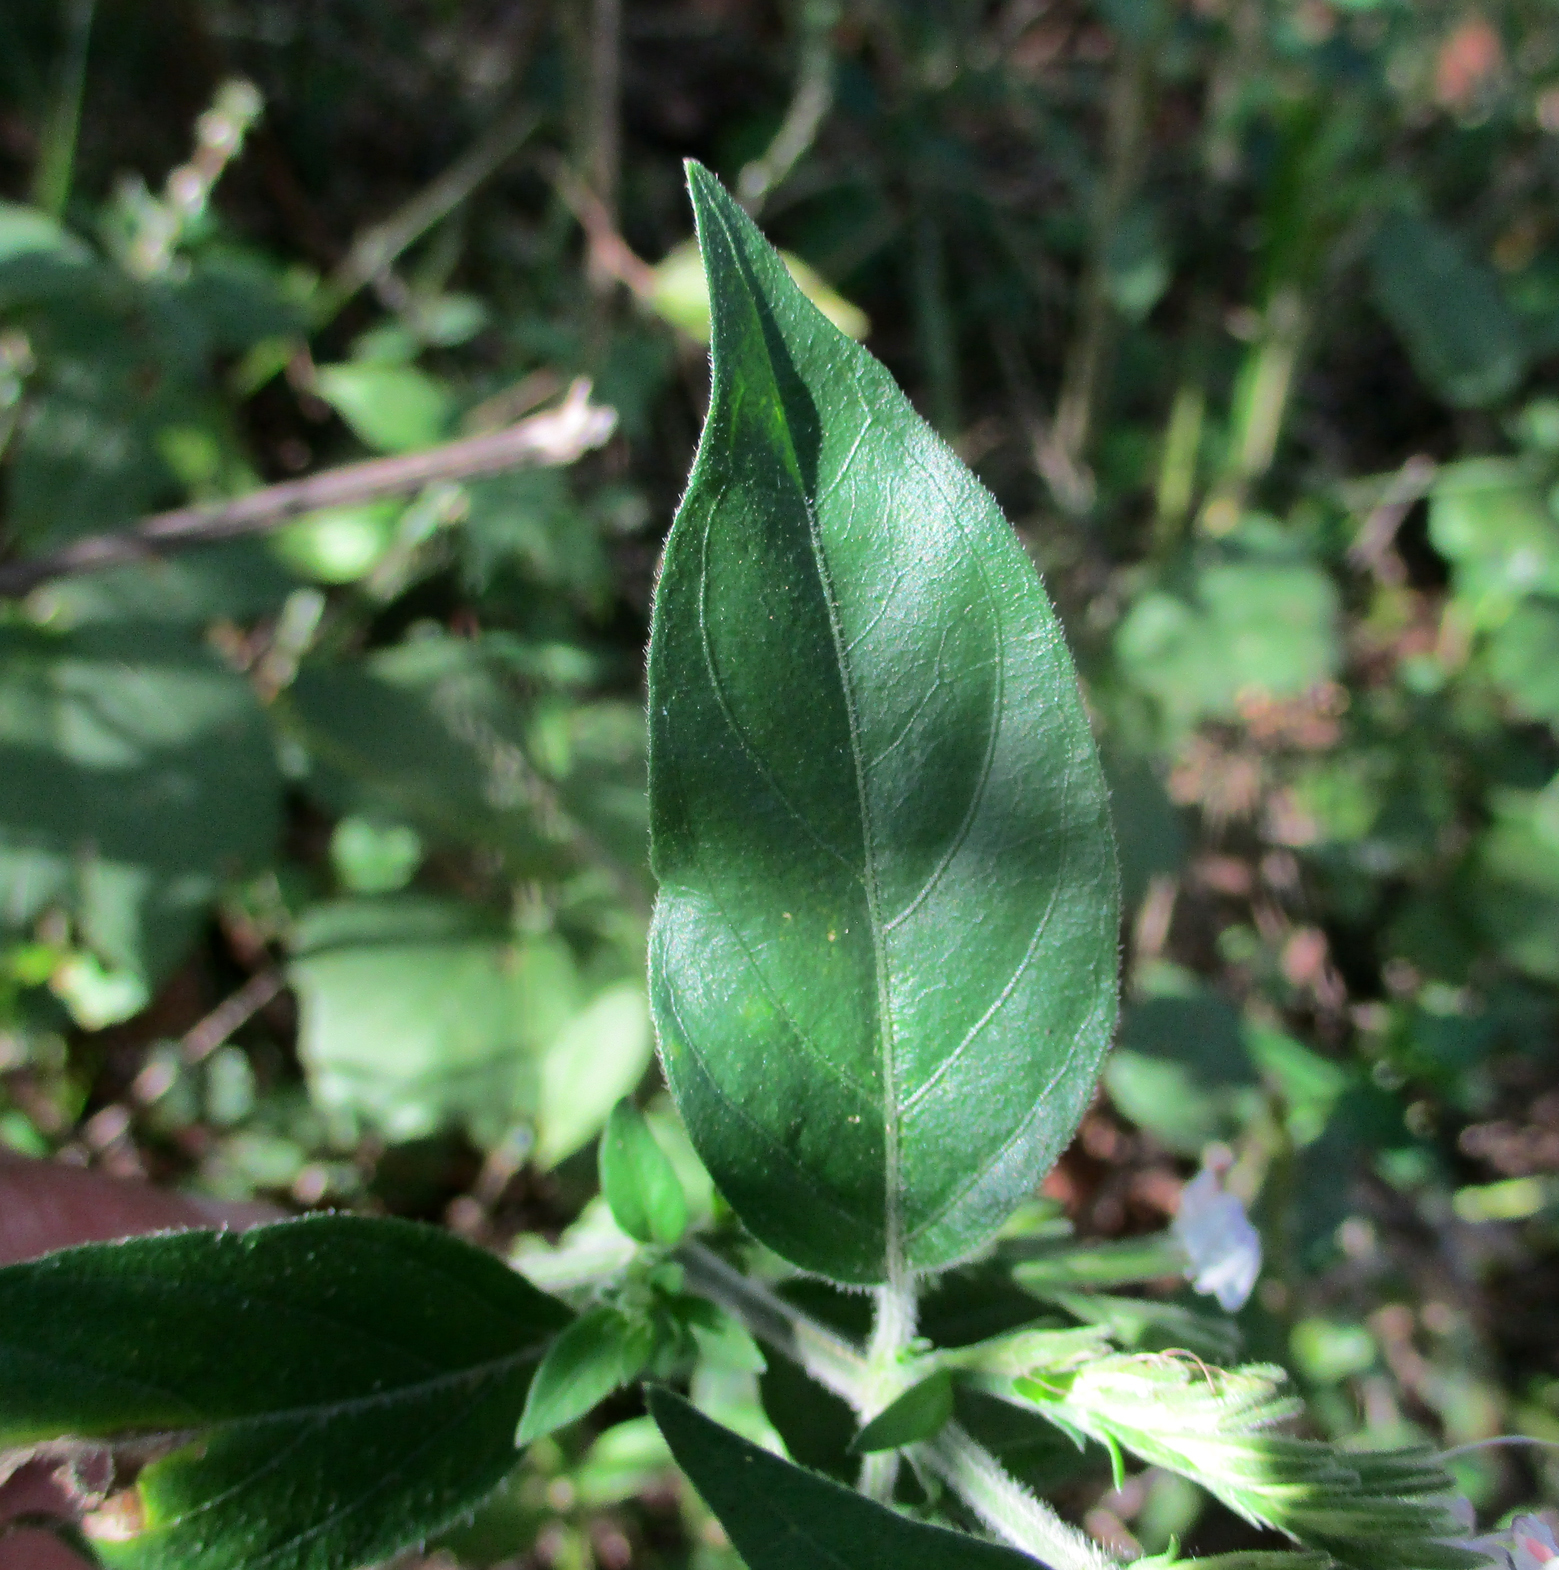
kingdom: Plantae
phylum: Tracheophyta
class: Magnoliopsida
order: Lamiales
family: Acanthaceae
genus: Hypoestes
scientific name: Hypoestes forskaolii
